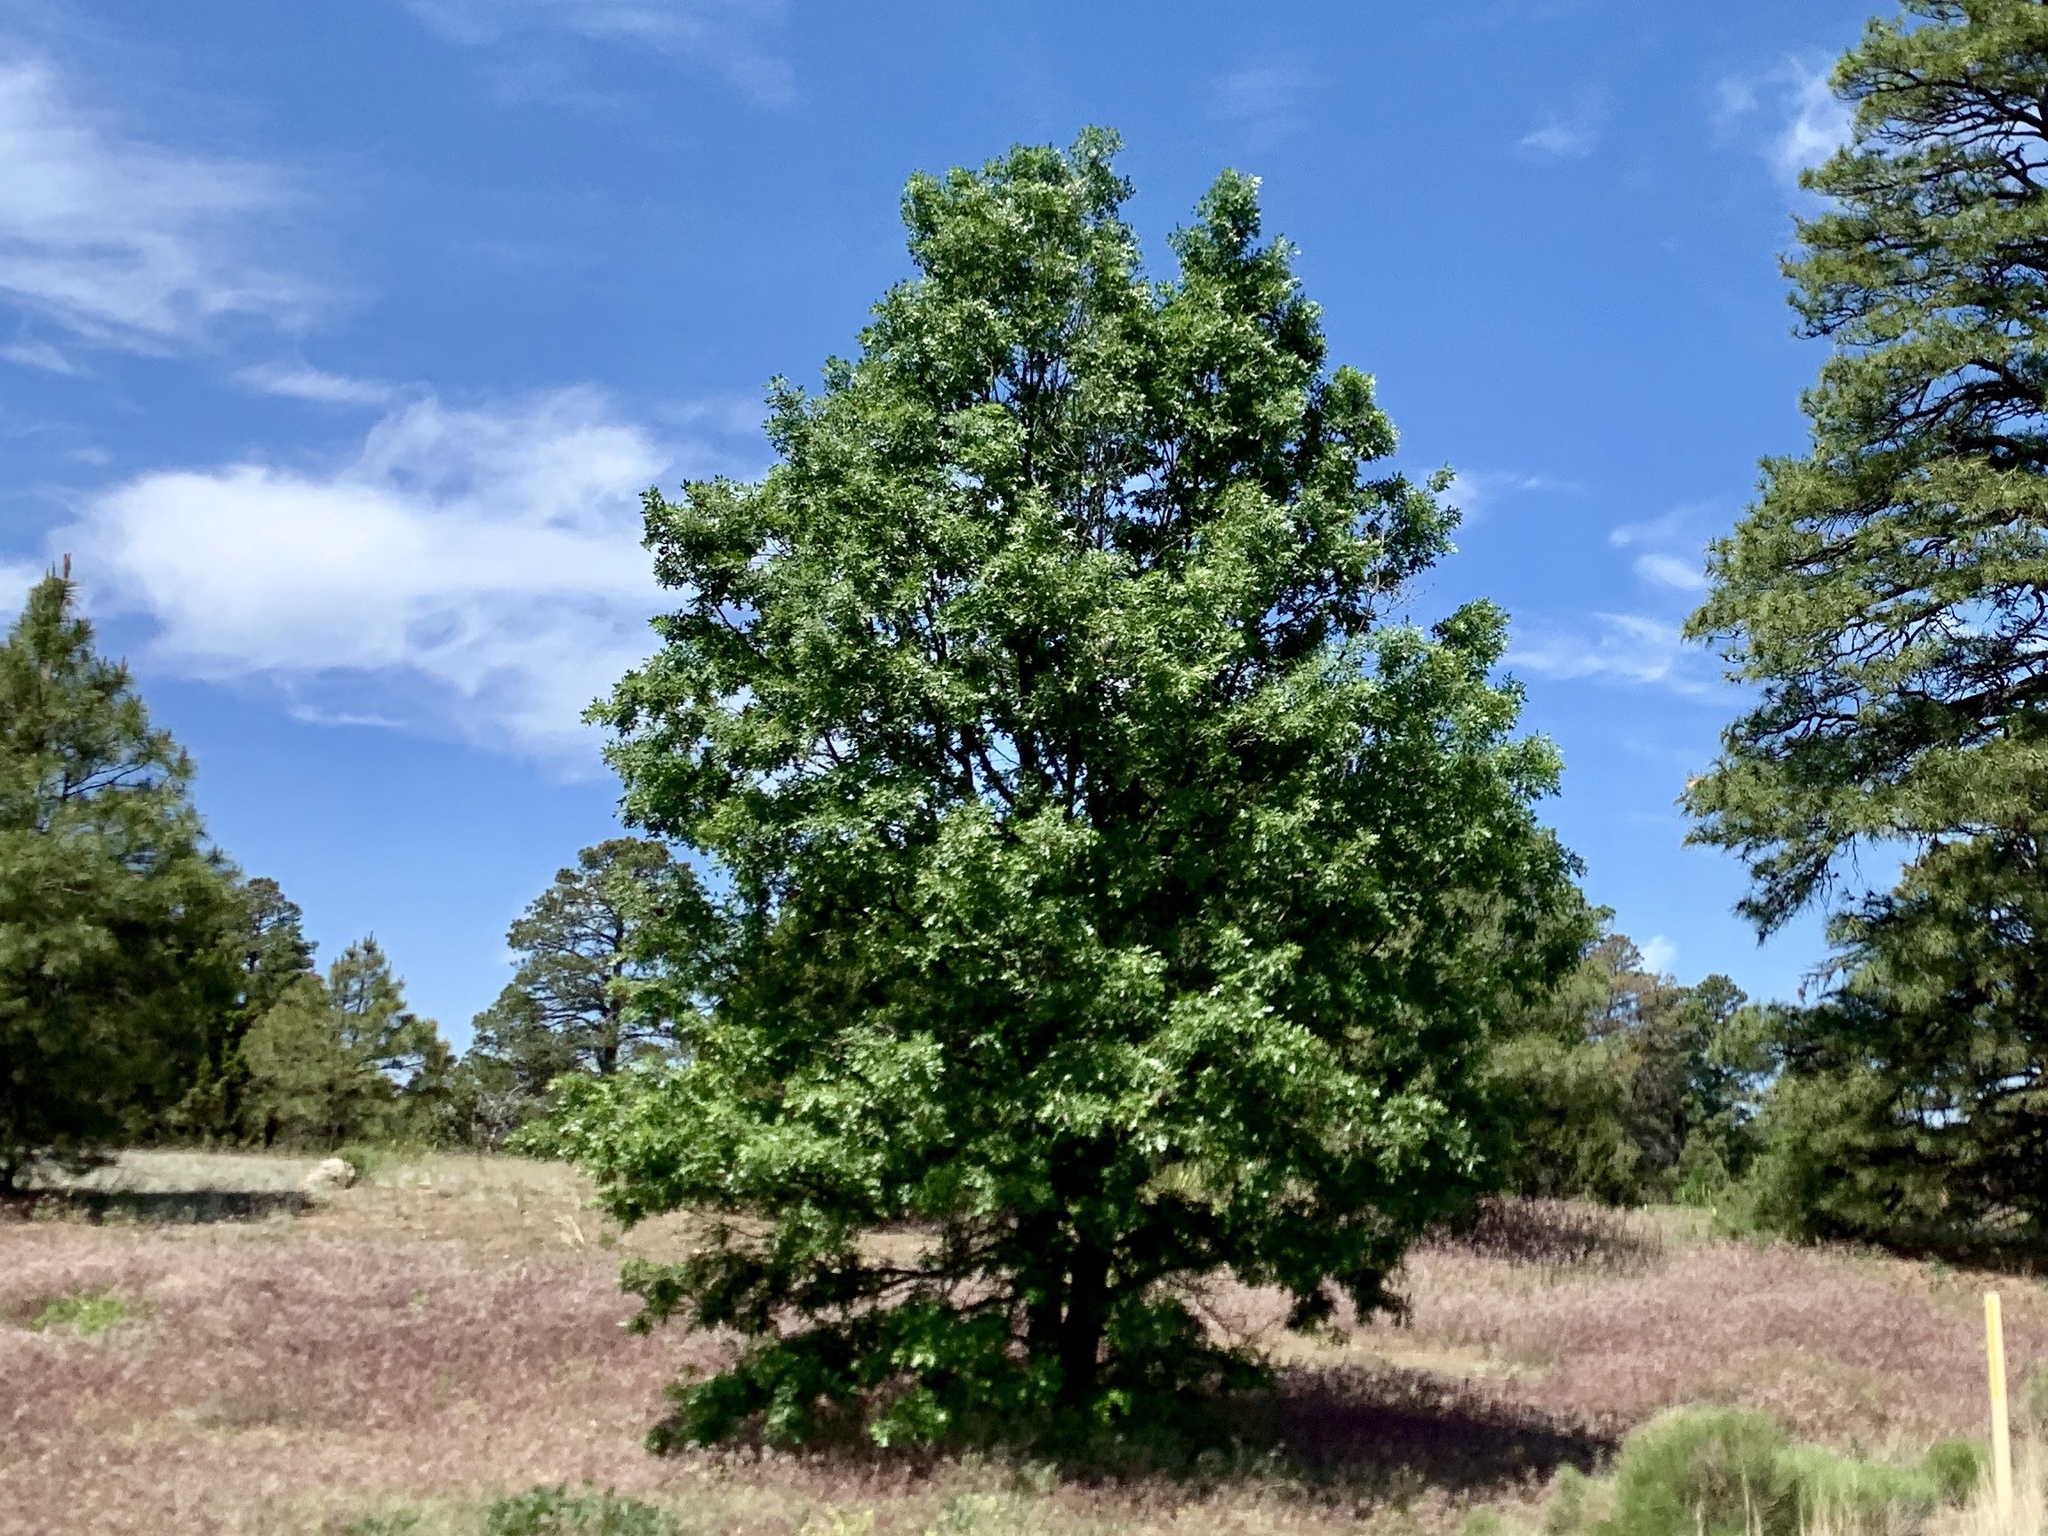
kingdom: Plantae
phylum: Tracheophyta
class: Magnoliopsida
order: Fagales
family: Fagaceae
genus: Quercus
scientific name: Quercus gambelii
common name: Gambel oak
